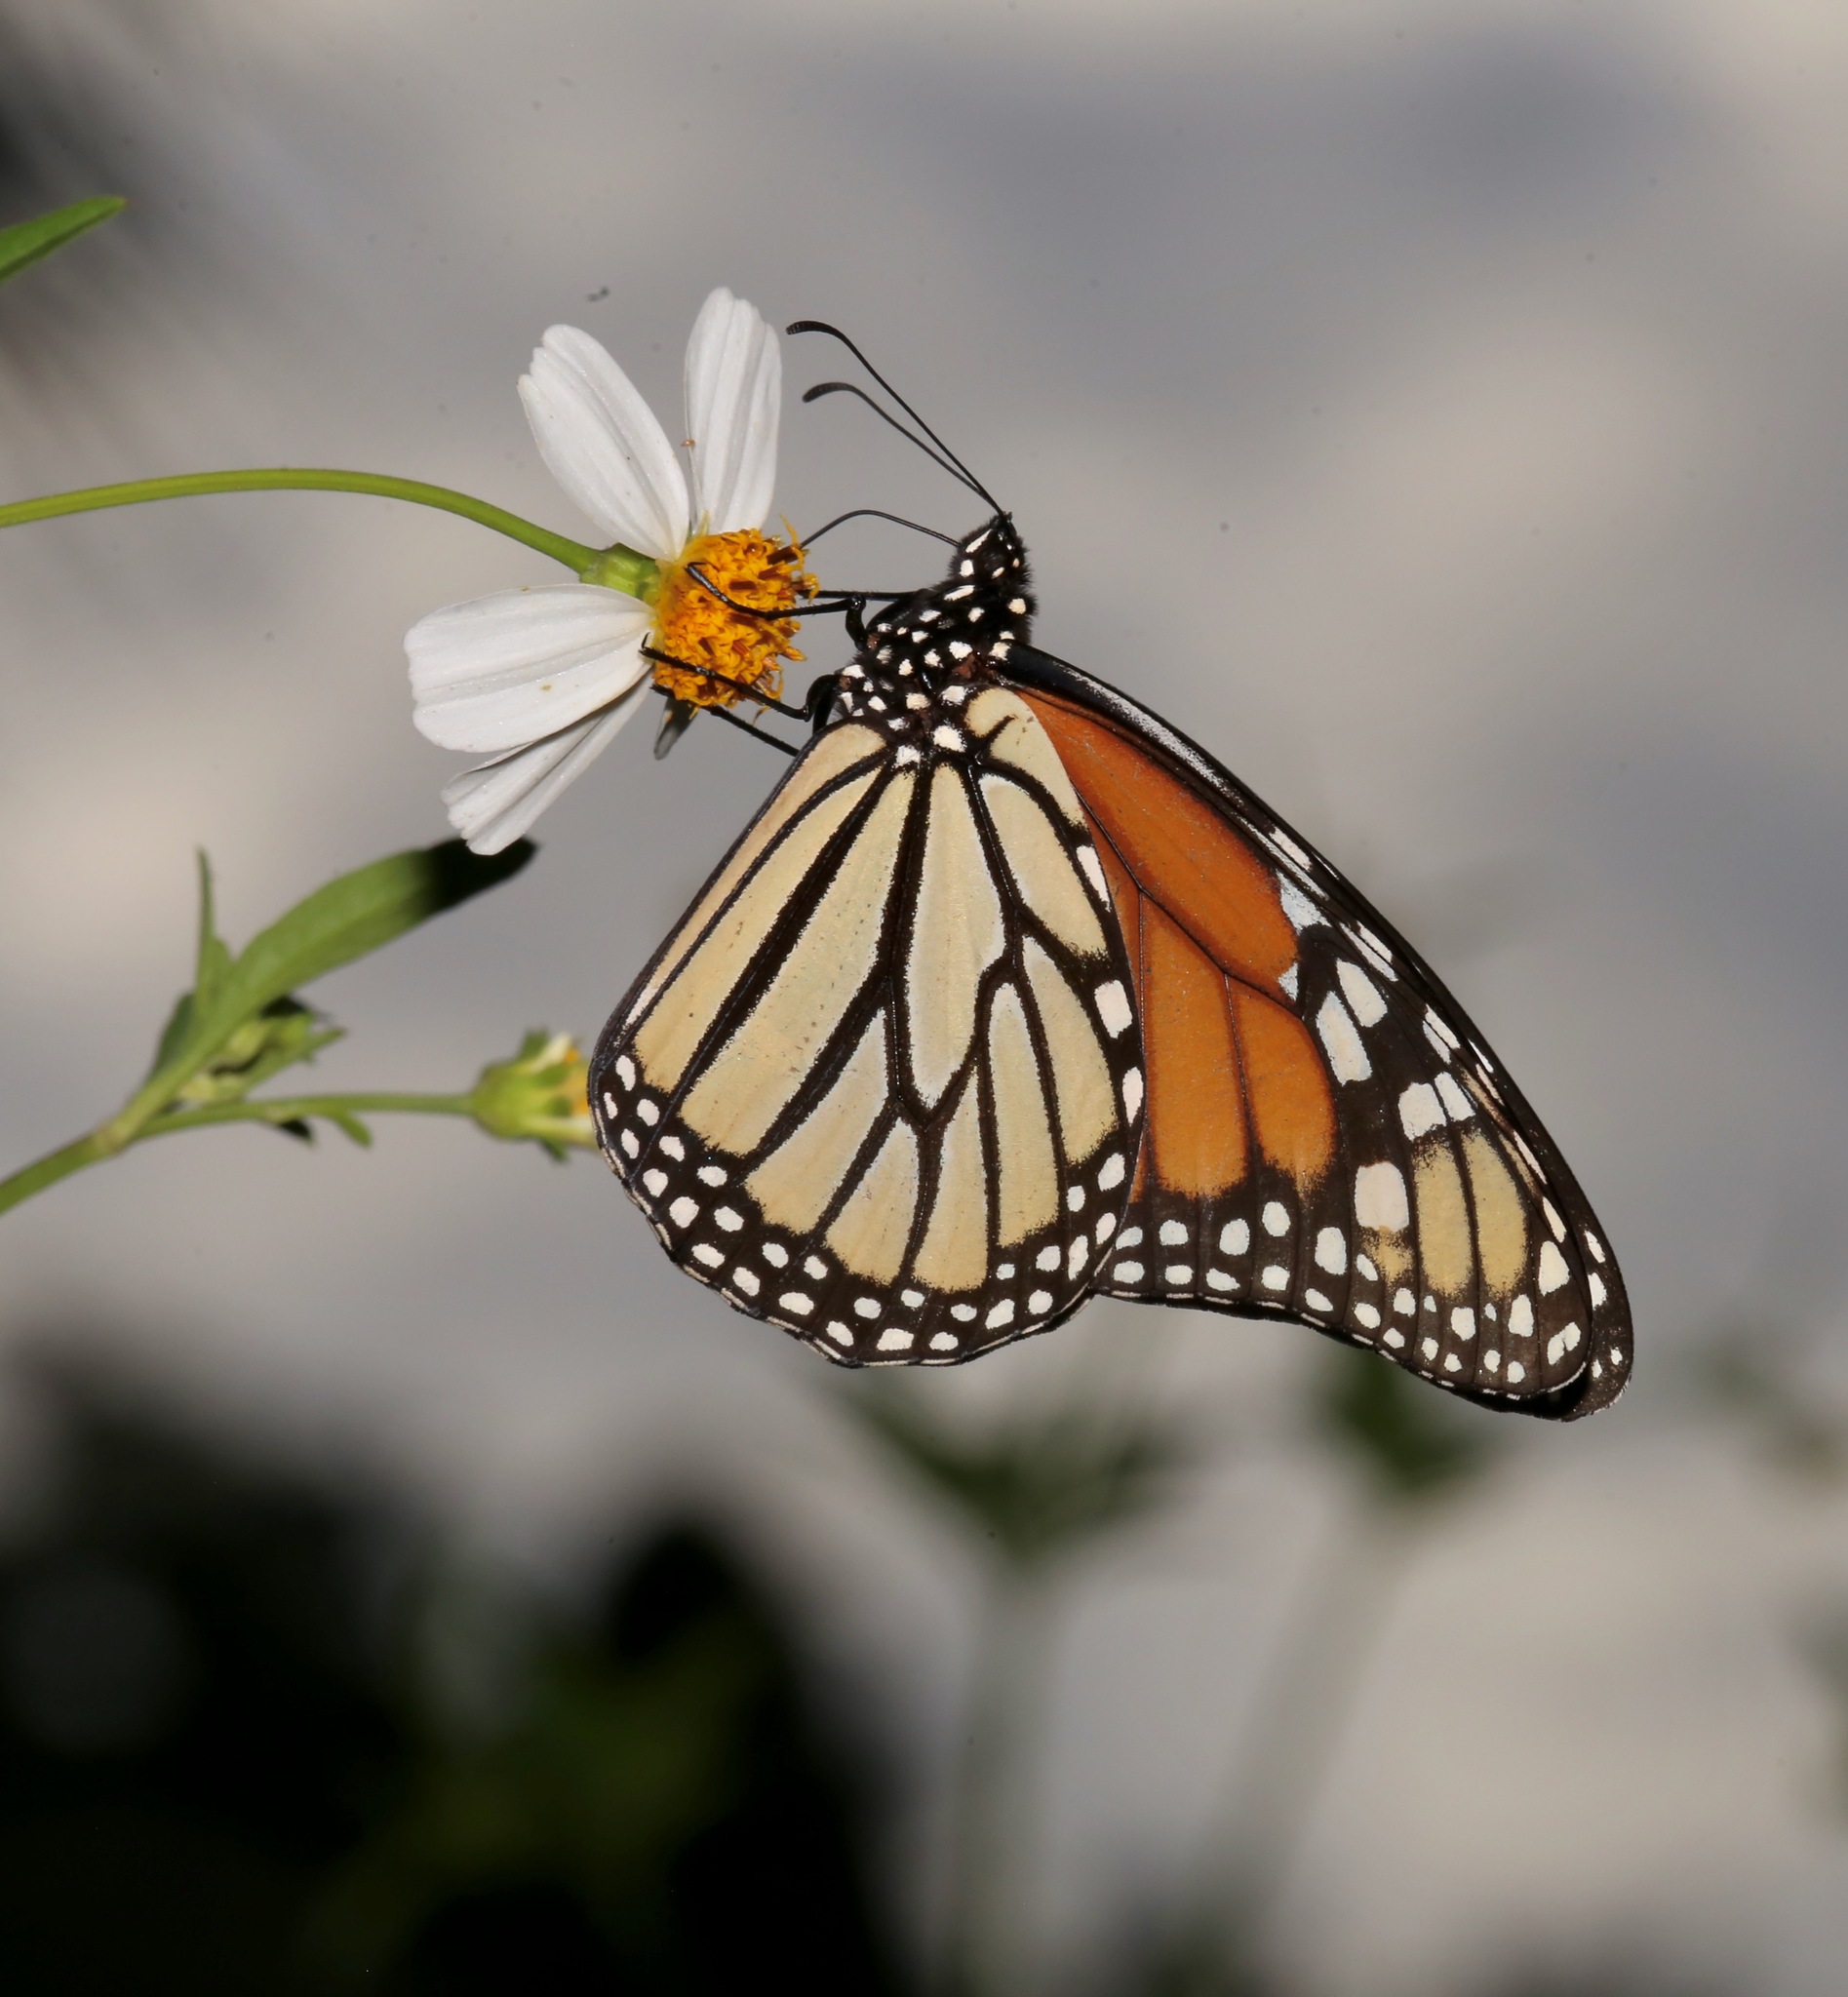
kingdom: Animalia
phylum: Arthropoda
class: Insecta
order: Lepidoptera
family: Nymphalidae
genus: Danaus
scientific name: Danaus plexippus
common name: Monarch
